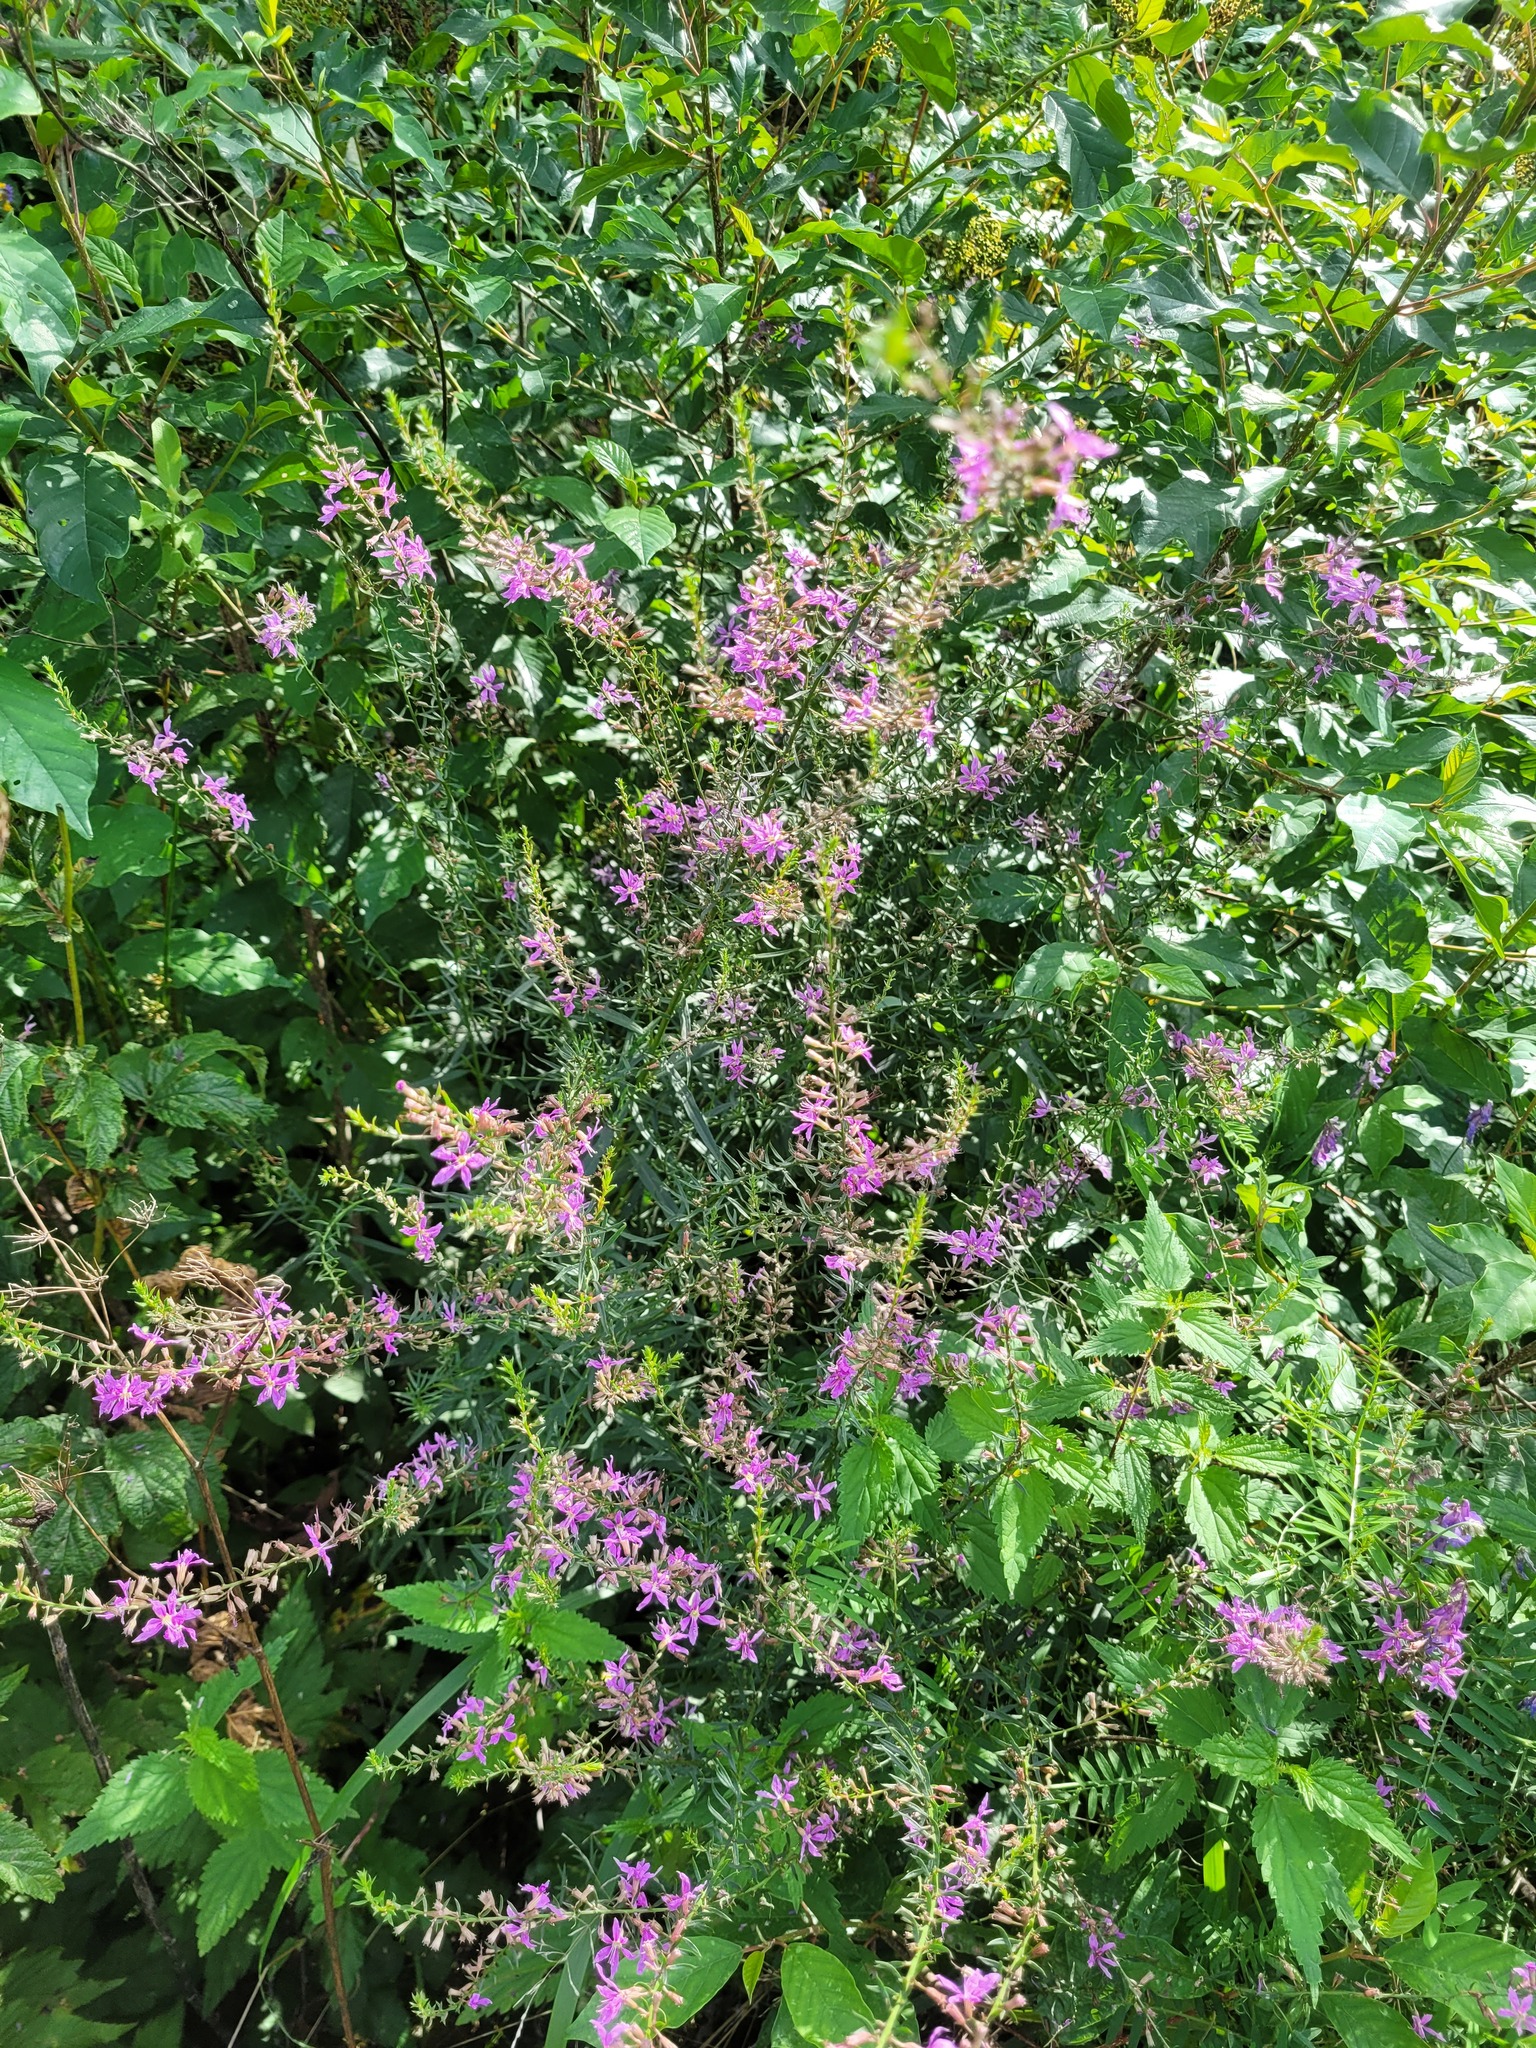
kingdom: Plantae
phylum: Tracheophyta
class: Magnoliopsida
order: Myrtales
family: Lythraceae
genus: Lythrum
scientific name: Lythrum virgatum
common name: European wand loosestrife
